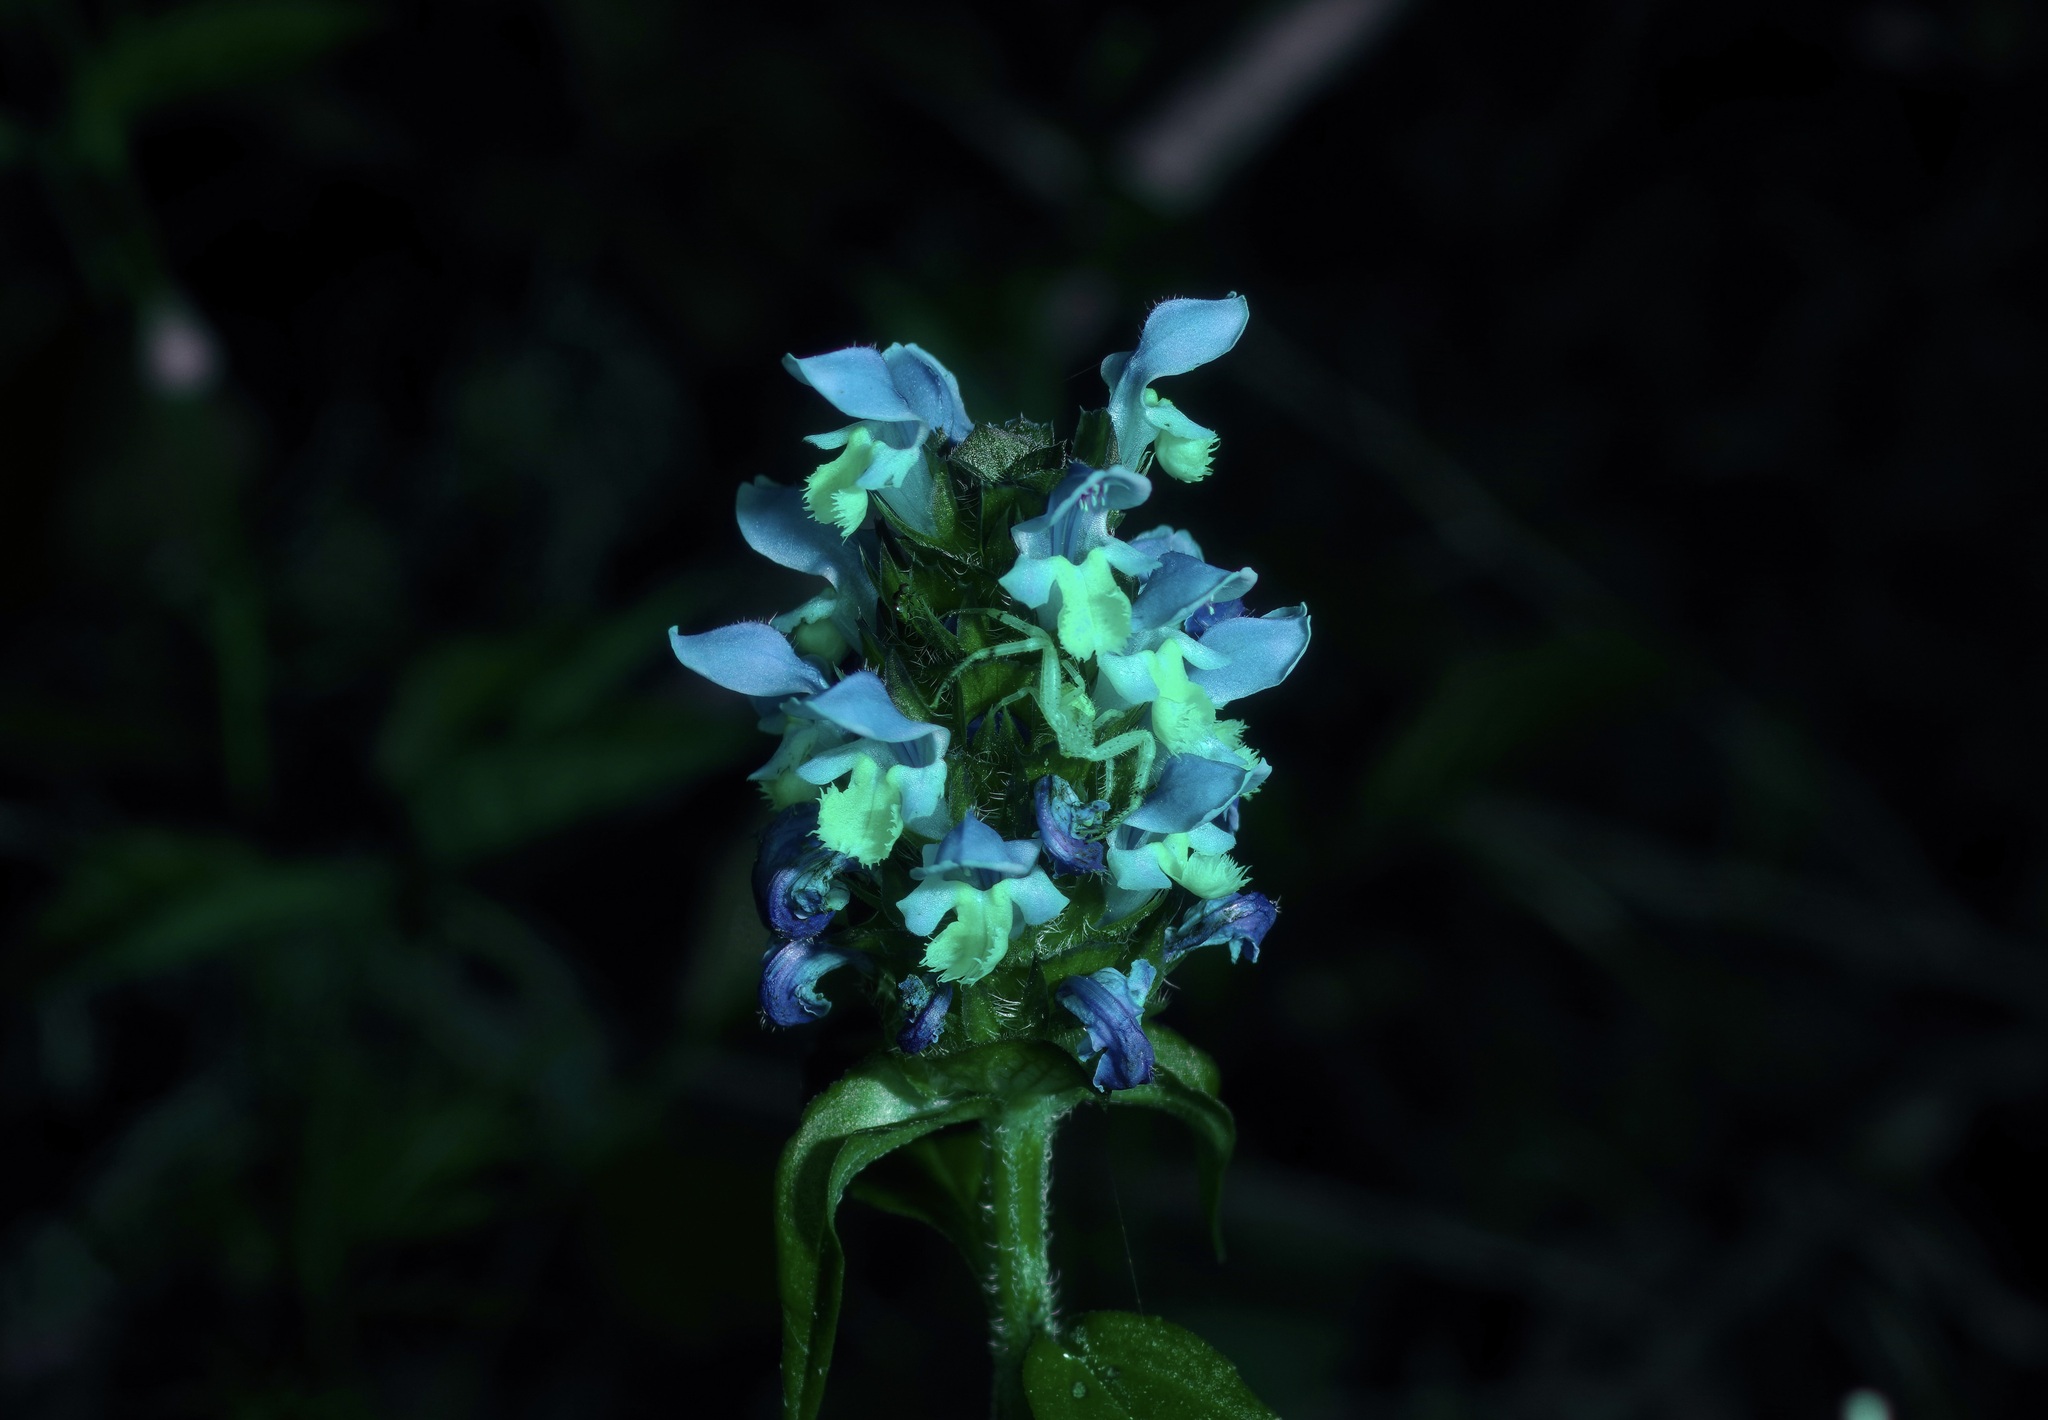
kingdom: Plantae
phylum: Tracheophyta
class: Magnoliopsida
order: Lamiales
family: Lamiaceae
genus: Prunella
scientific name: Prunella vulgaris
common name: Heal-all
